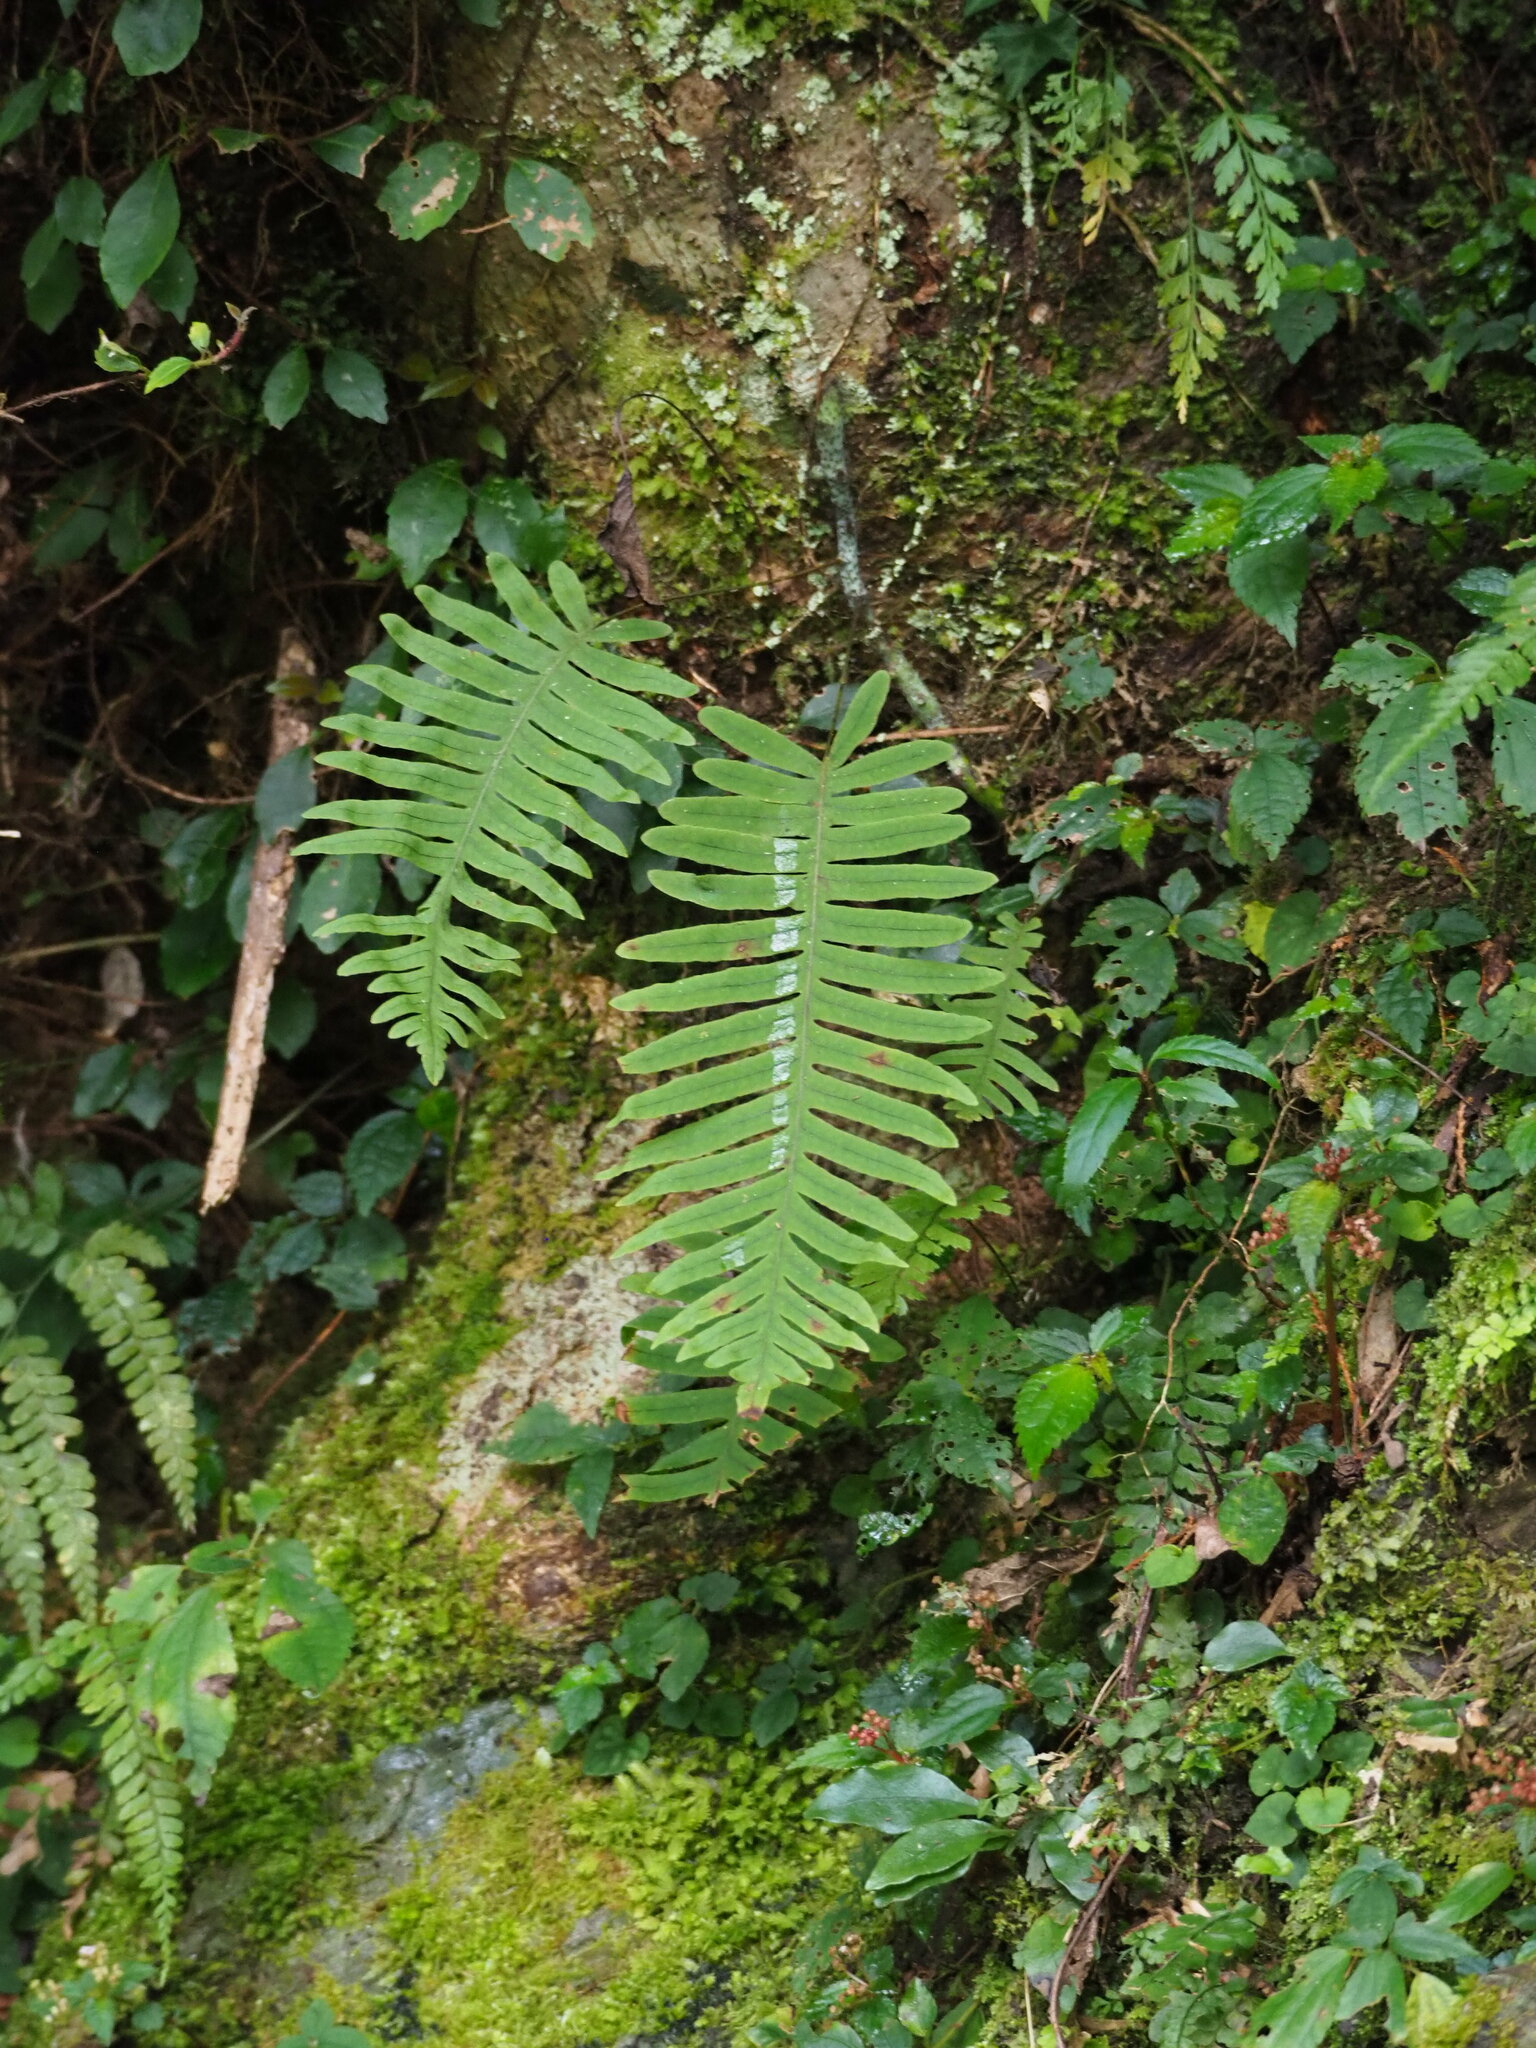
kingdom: Plantae
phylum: Tracheophyta
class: Polypodiopsida
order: Polypodiales
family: Polypodiaceae
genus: Goniophlebium
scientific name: Goniophlebium formosanum
